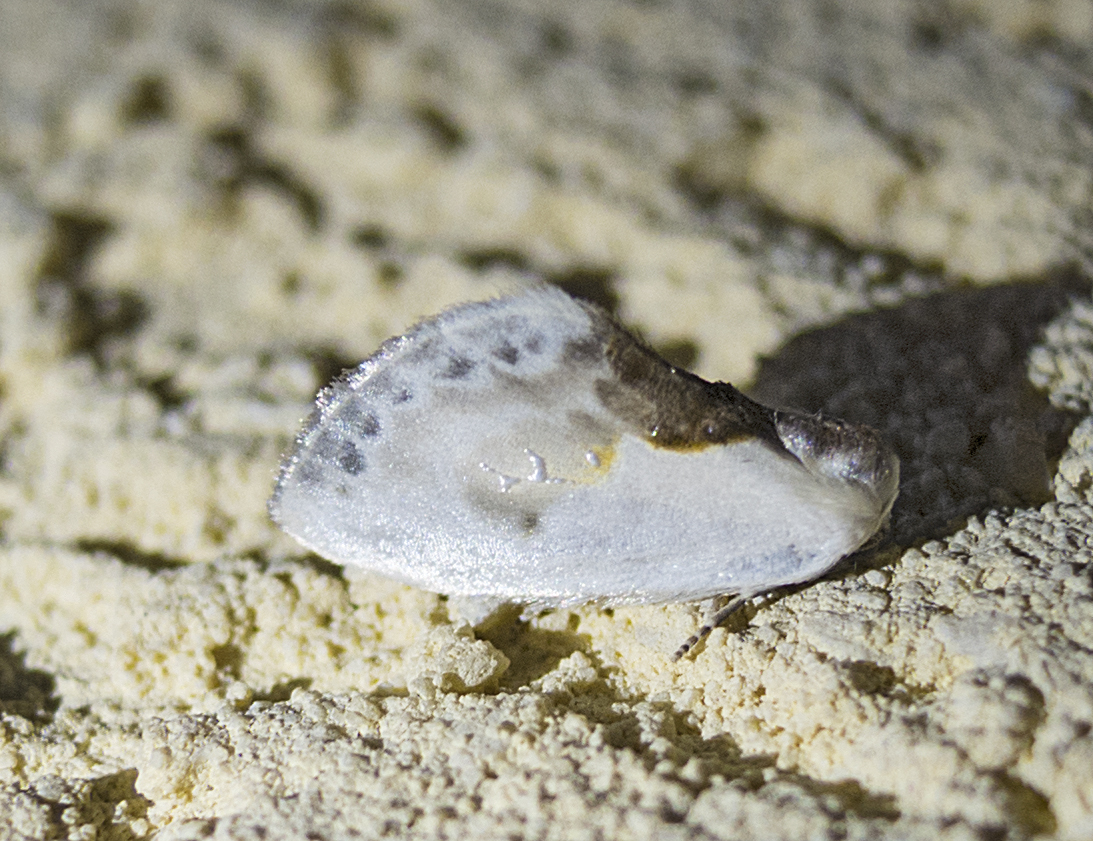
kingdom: Animalia
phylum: Arthropoda
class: Insecta
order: Lepidoptera
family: Drepanidae
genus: Cilix
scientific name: Cilix glaucata
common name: Chinese character
